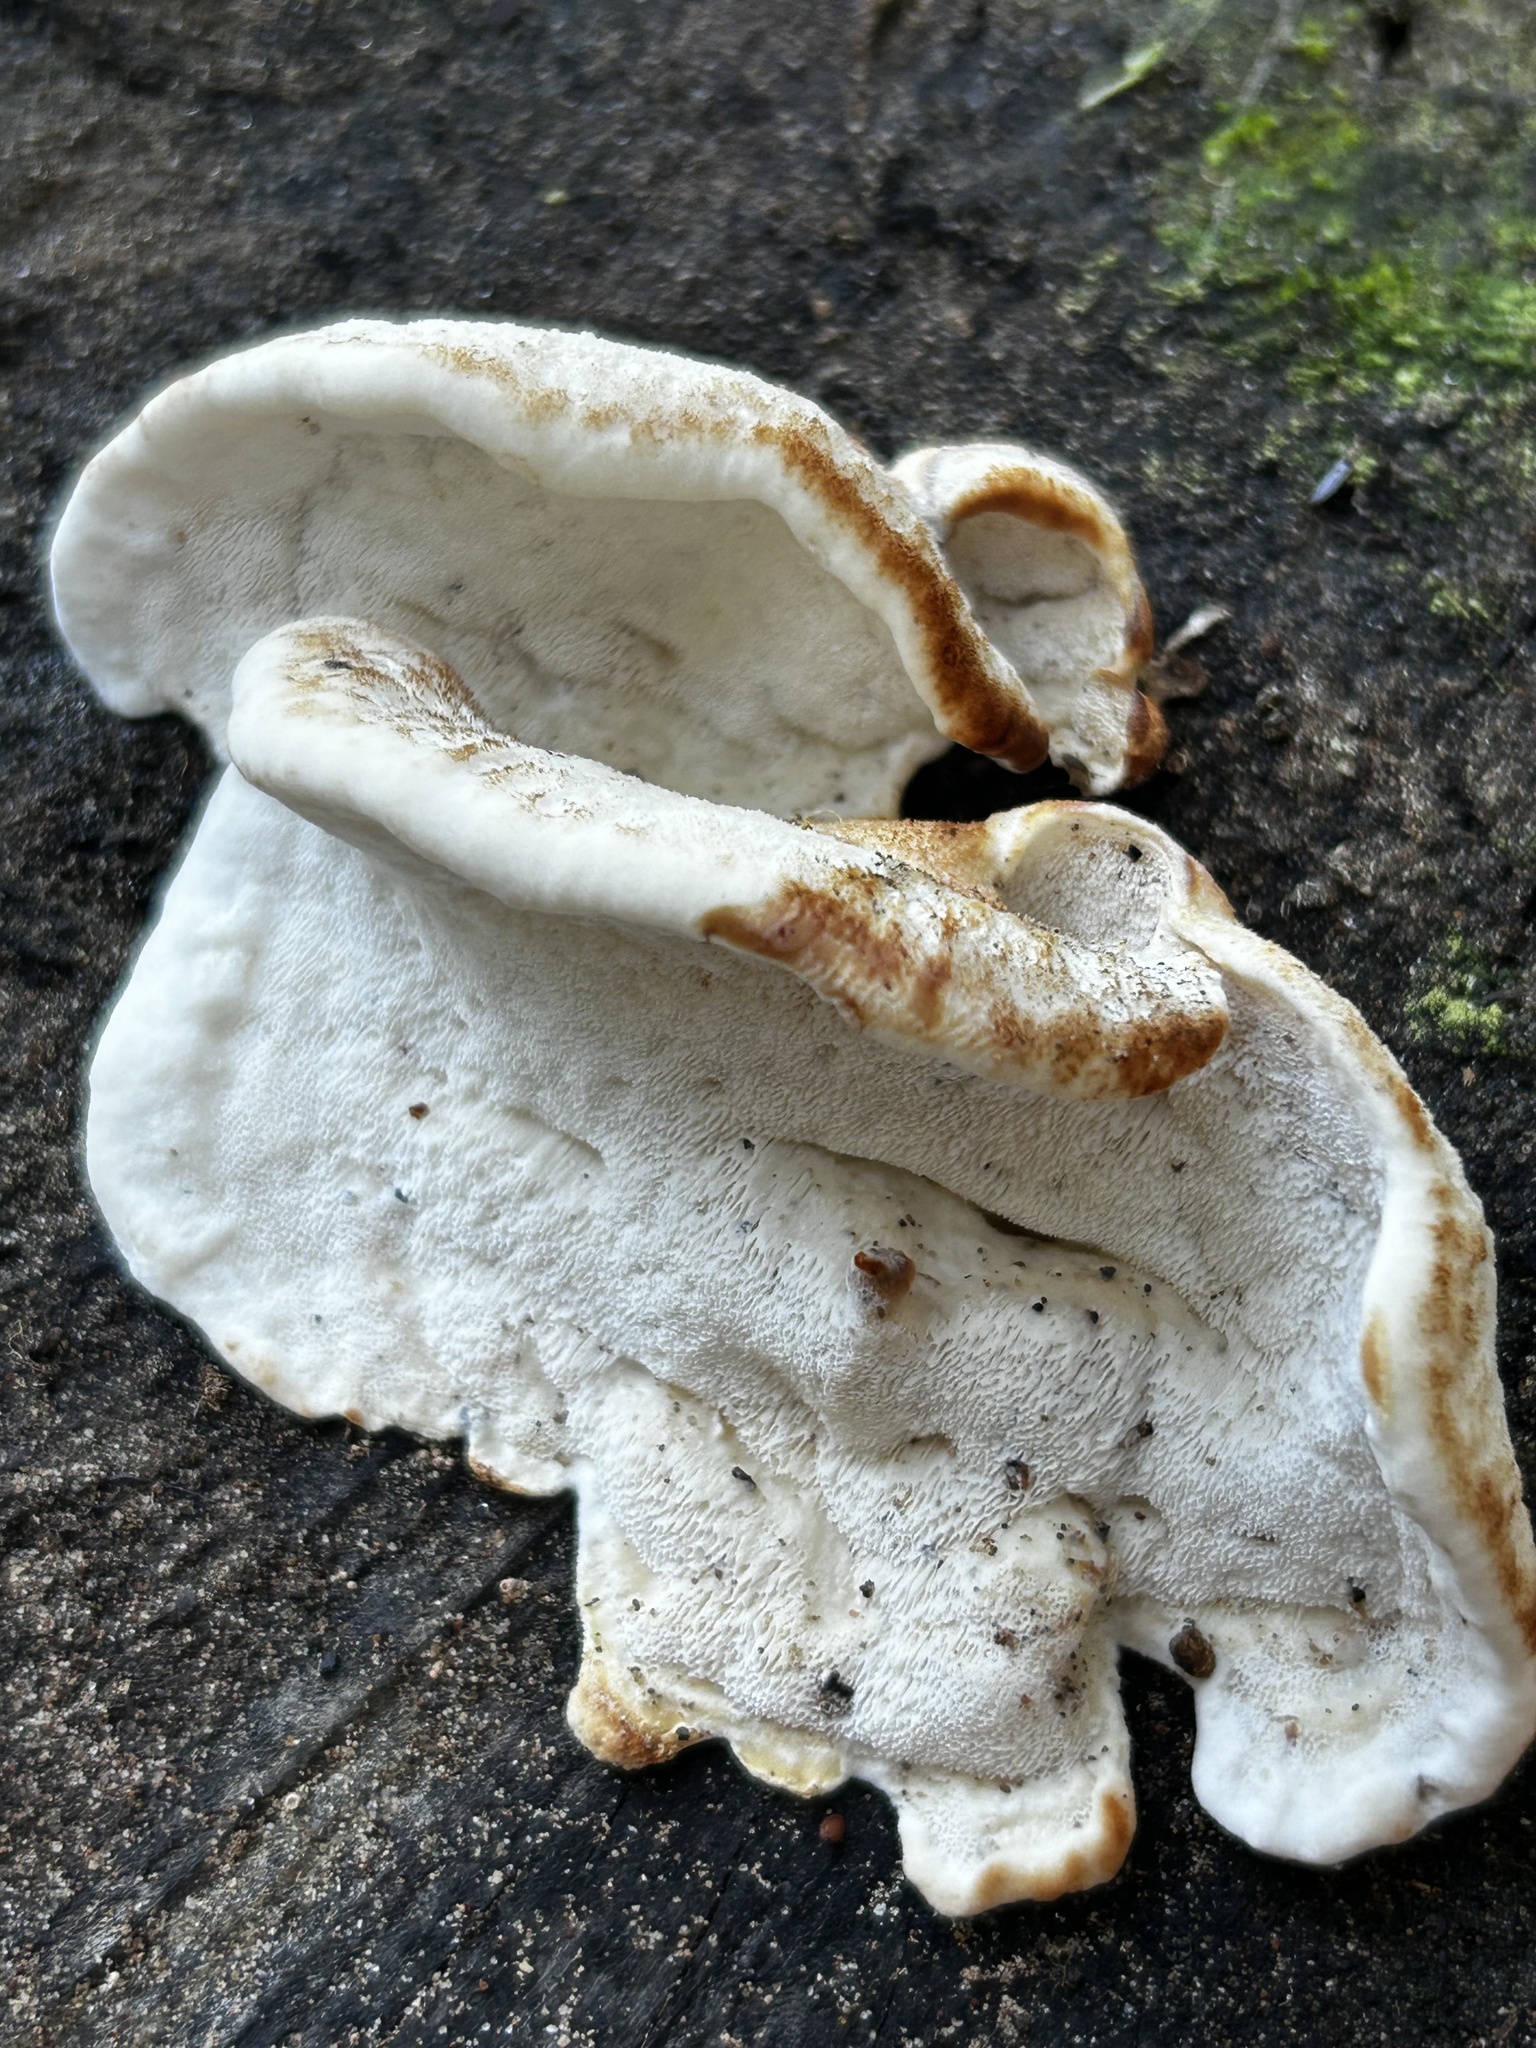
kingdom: Fungi
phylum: Basidiomycota
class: Agaricomycetes
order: Polyporales
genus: Fuscopostia
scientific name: Fuscopostia fragilis
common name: Brown-staining cheese polypore
